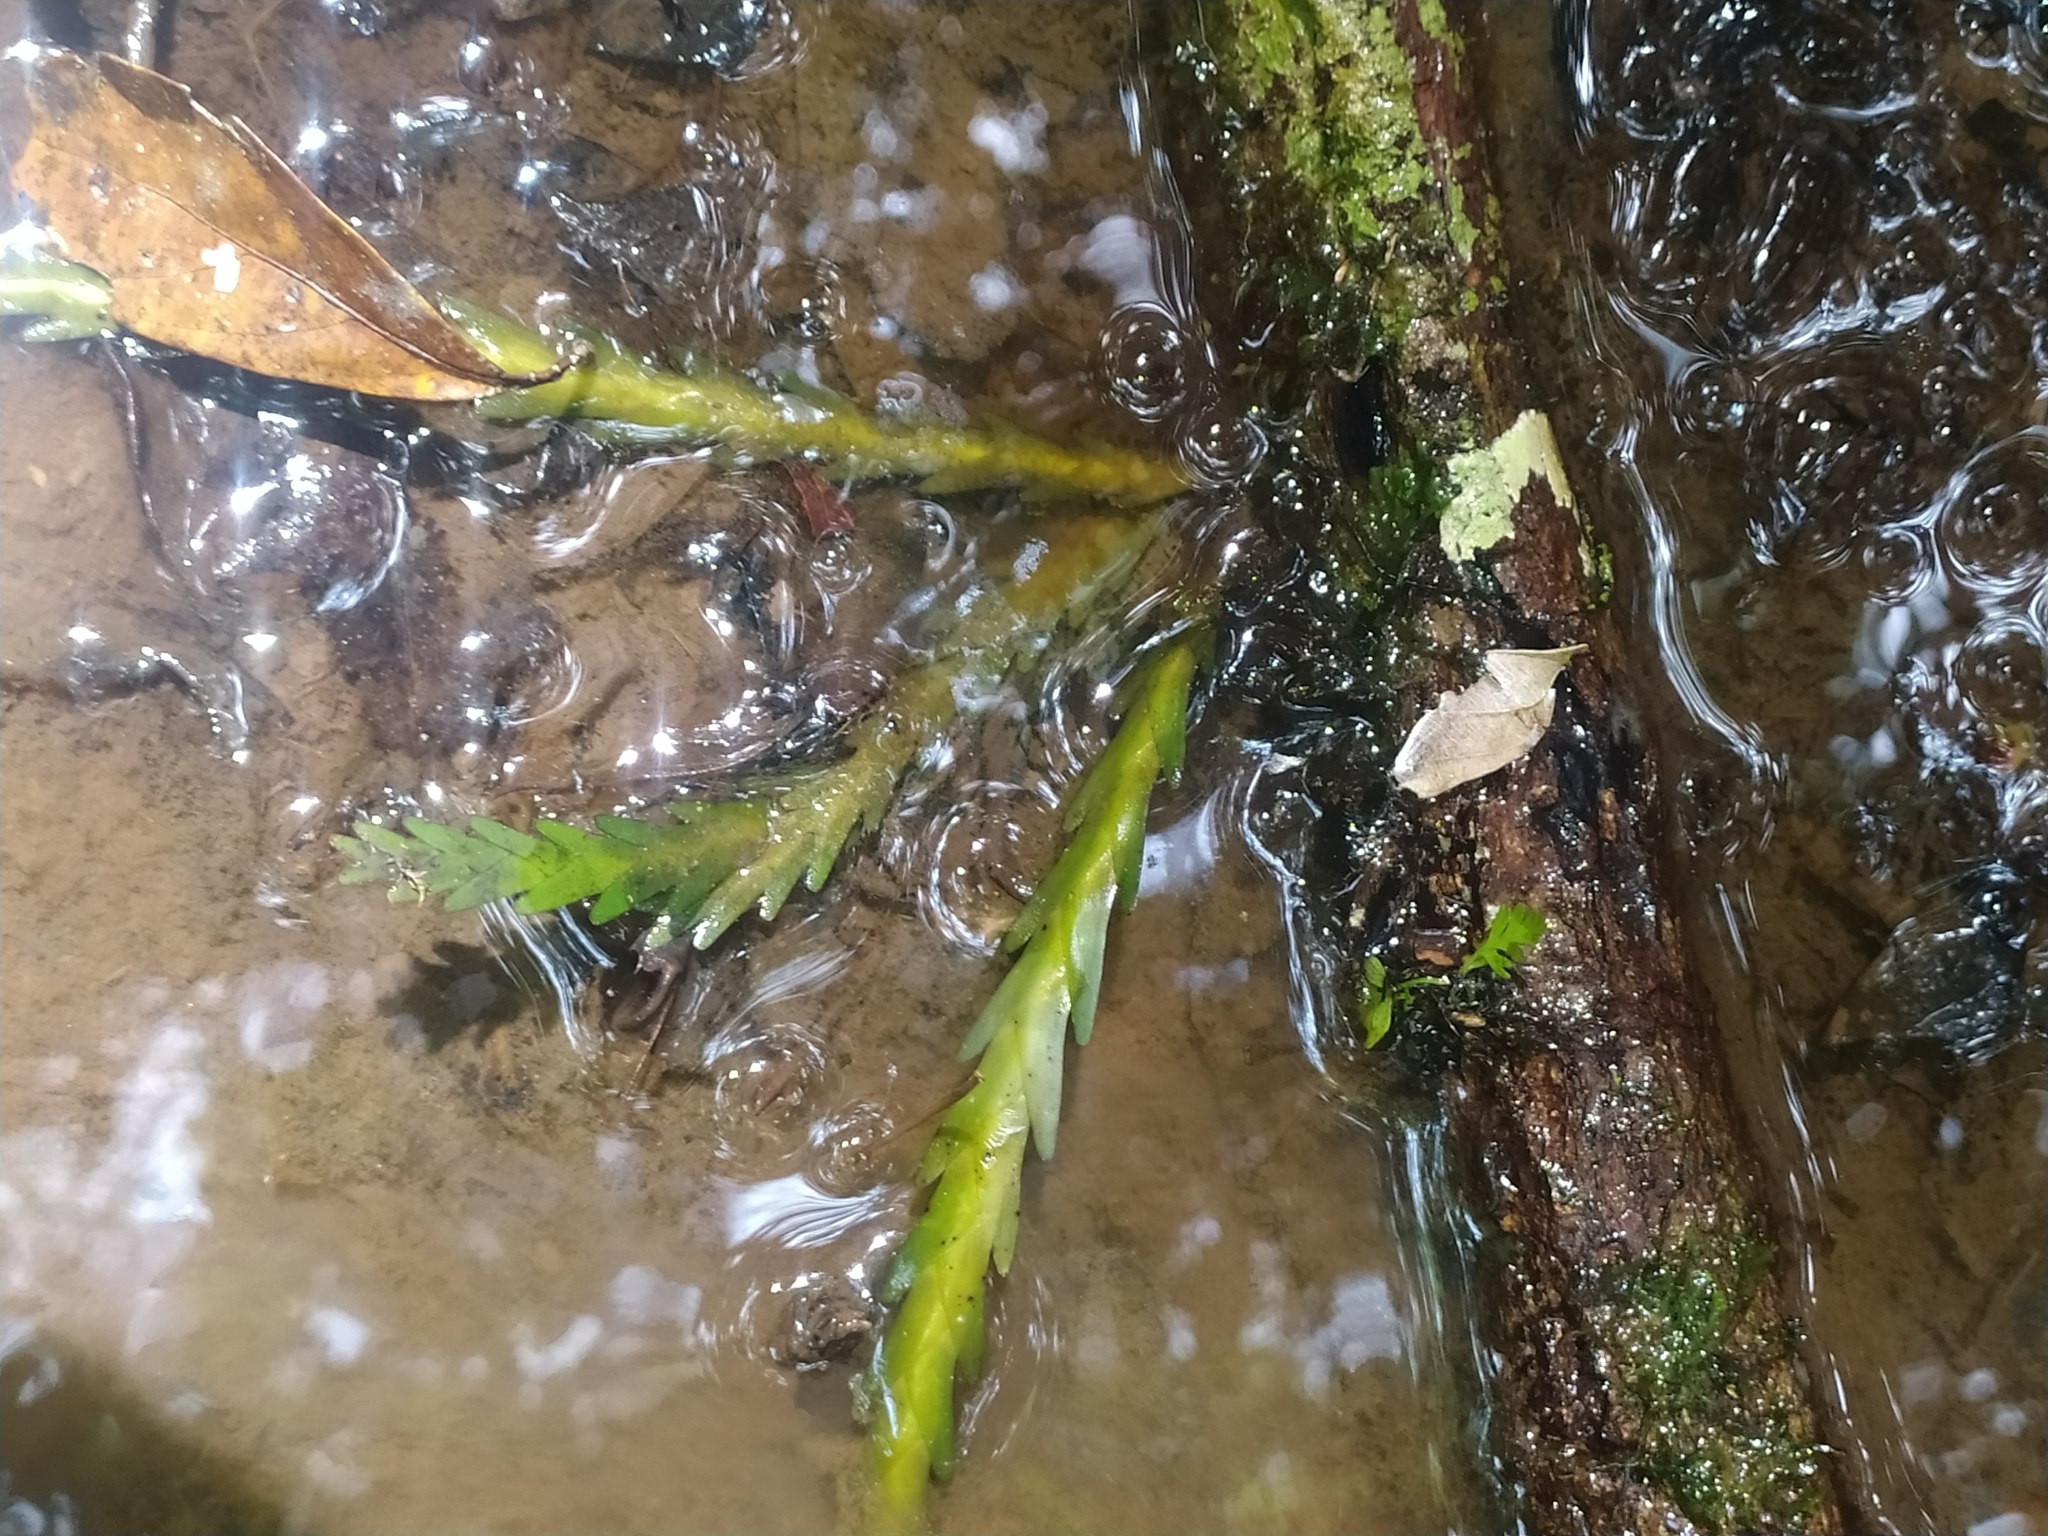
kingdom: Plantae
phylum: Tracheophyta
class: Liliopsida
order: Asparagales
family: Orchidaceae
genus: Lockhartia
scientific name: Lockhartia imbricata
